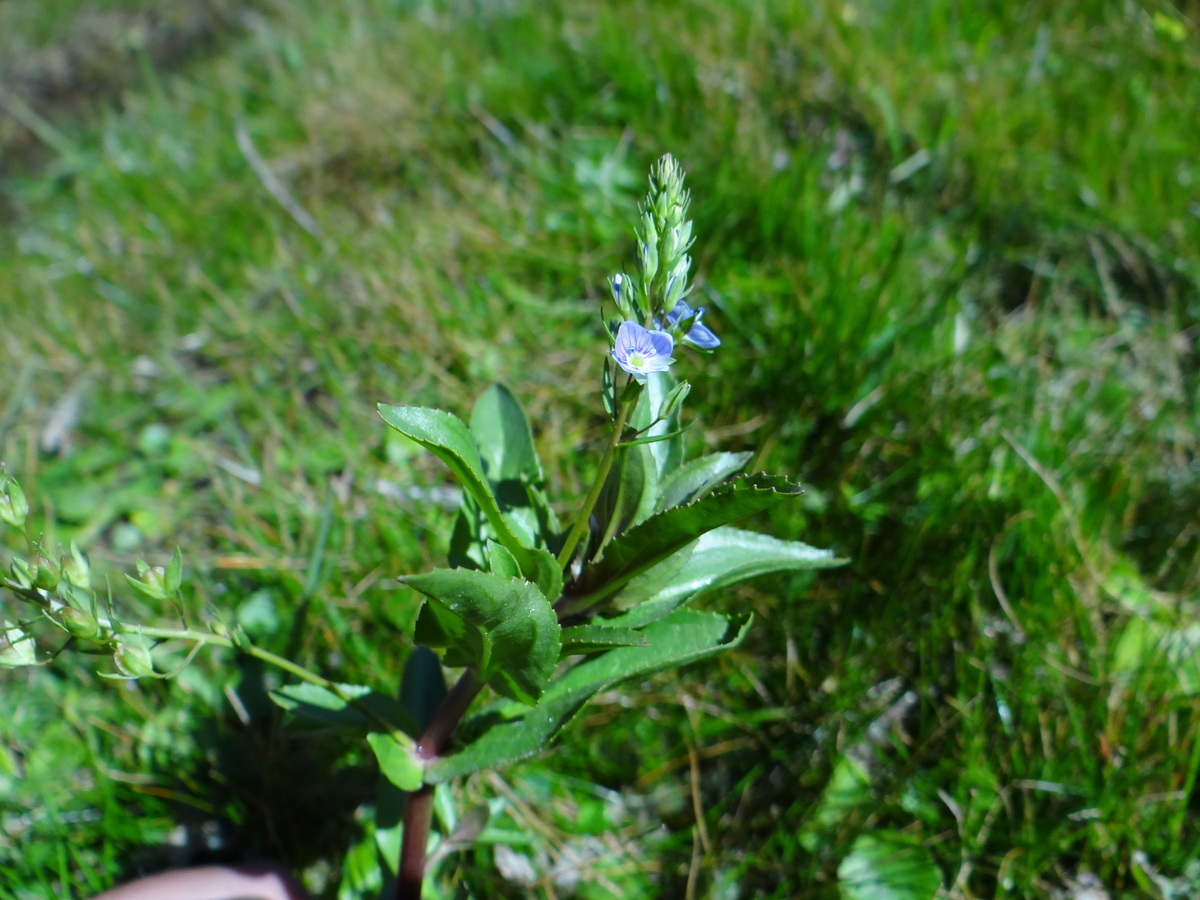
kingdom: Plantae
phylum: Tracheophyta
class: Magnoliopsida
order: Lamiales
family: Plantaginaceae
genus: Veronica
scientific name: Veronica anagallis-aquatica
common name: Water speedwell
